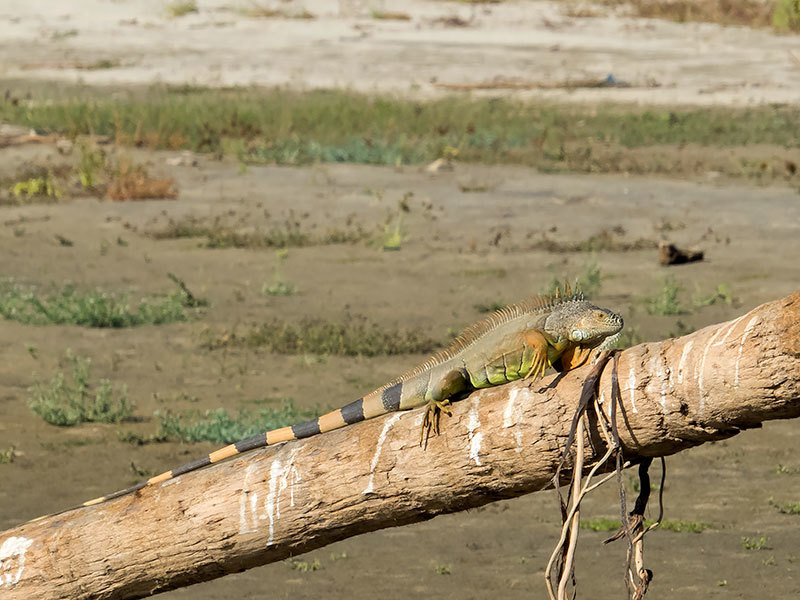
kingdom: Animalia
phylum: Chordata
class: Squamata
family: Iguanidae
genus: Iguana
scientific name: Iguana iguana
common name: Green iguana
